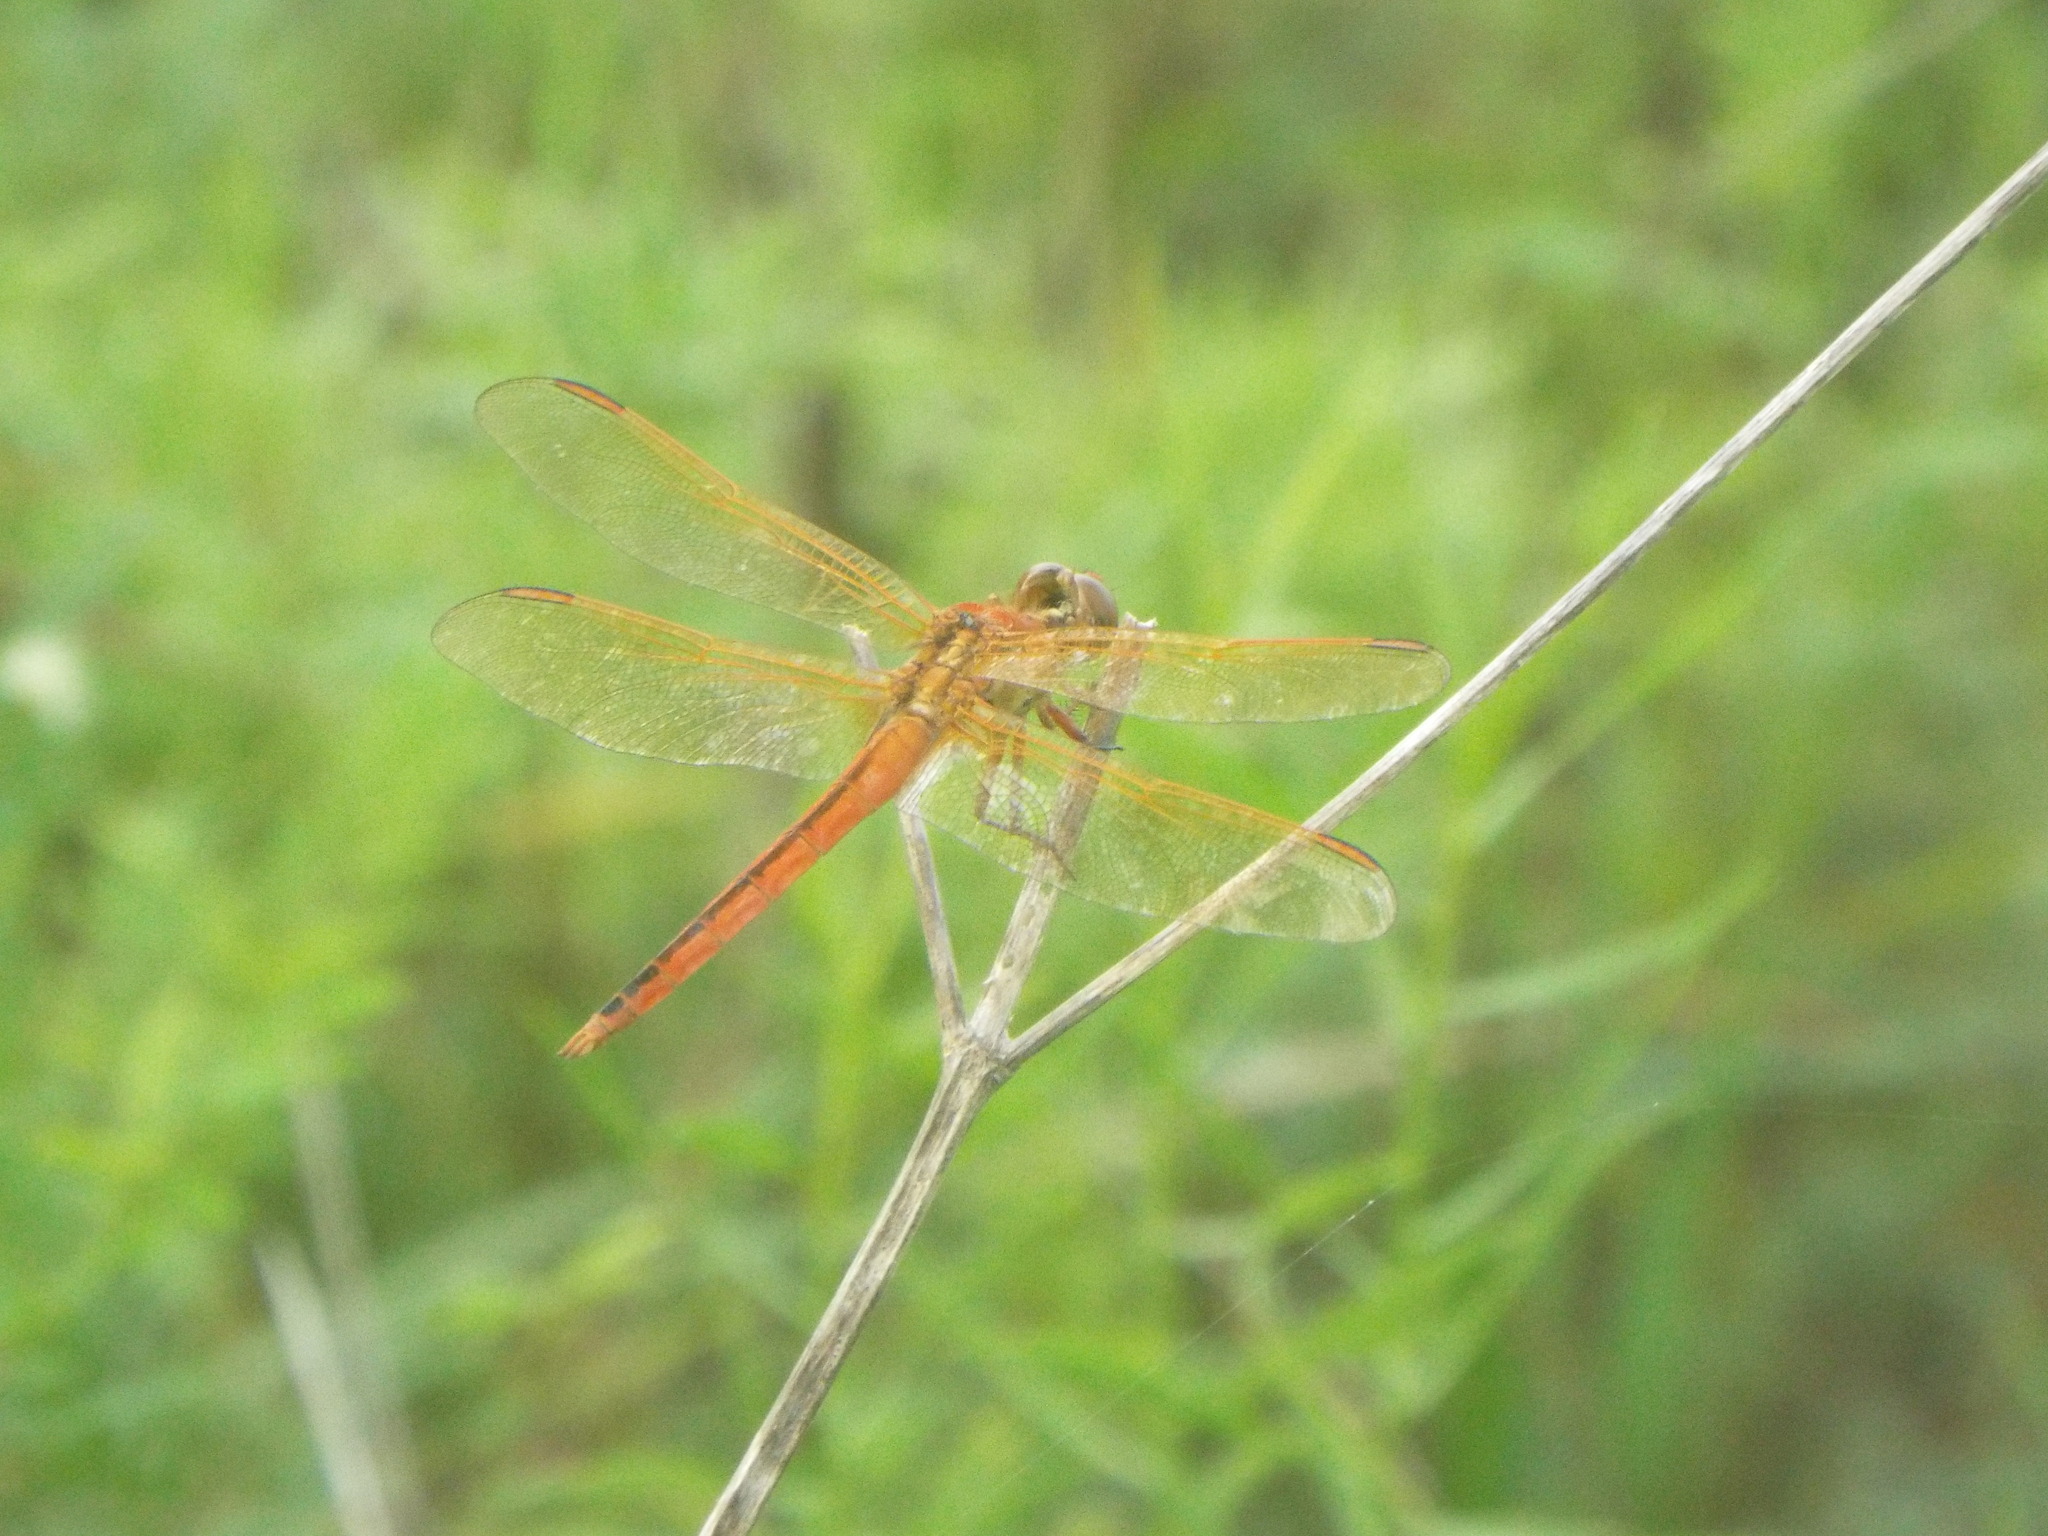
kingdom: Animalia
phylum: Arthropoda
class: Insecta
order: Odonata
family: Libellulidae
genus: Libellula
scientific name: Libellula needhami
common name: Needham's skimmer
